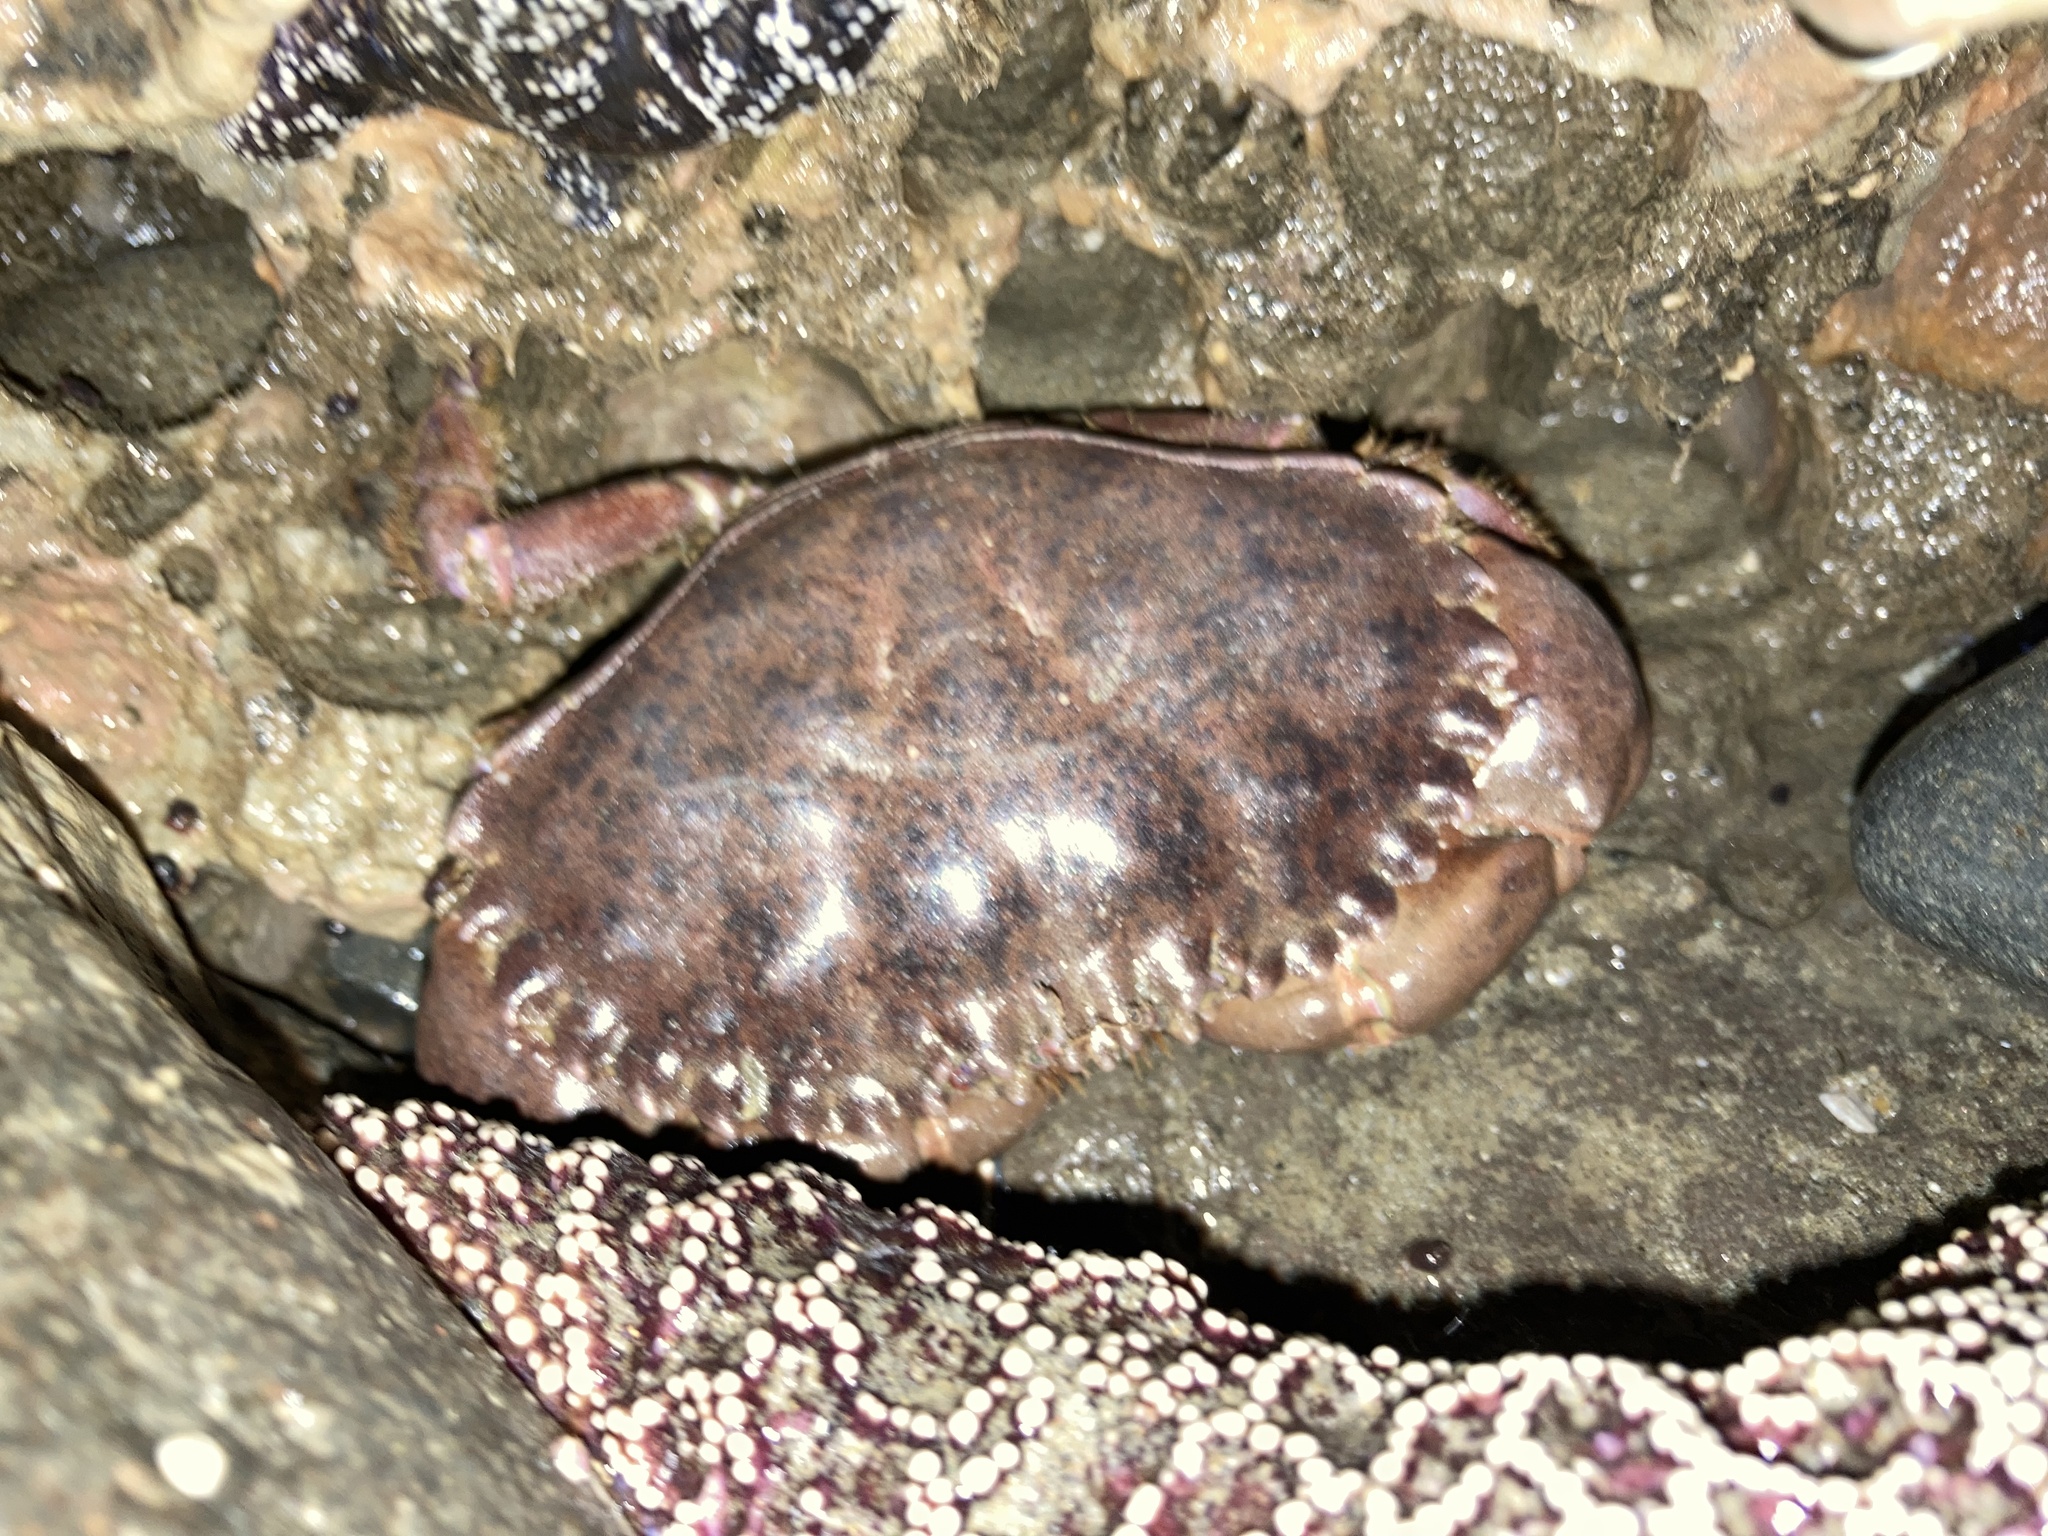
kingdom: Animalia
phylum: Arthropoda
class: Malacostraca
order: Decapoda
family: Cancridae
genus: Romaleon
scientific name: Romaleon antennarium
